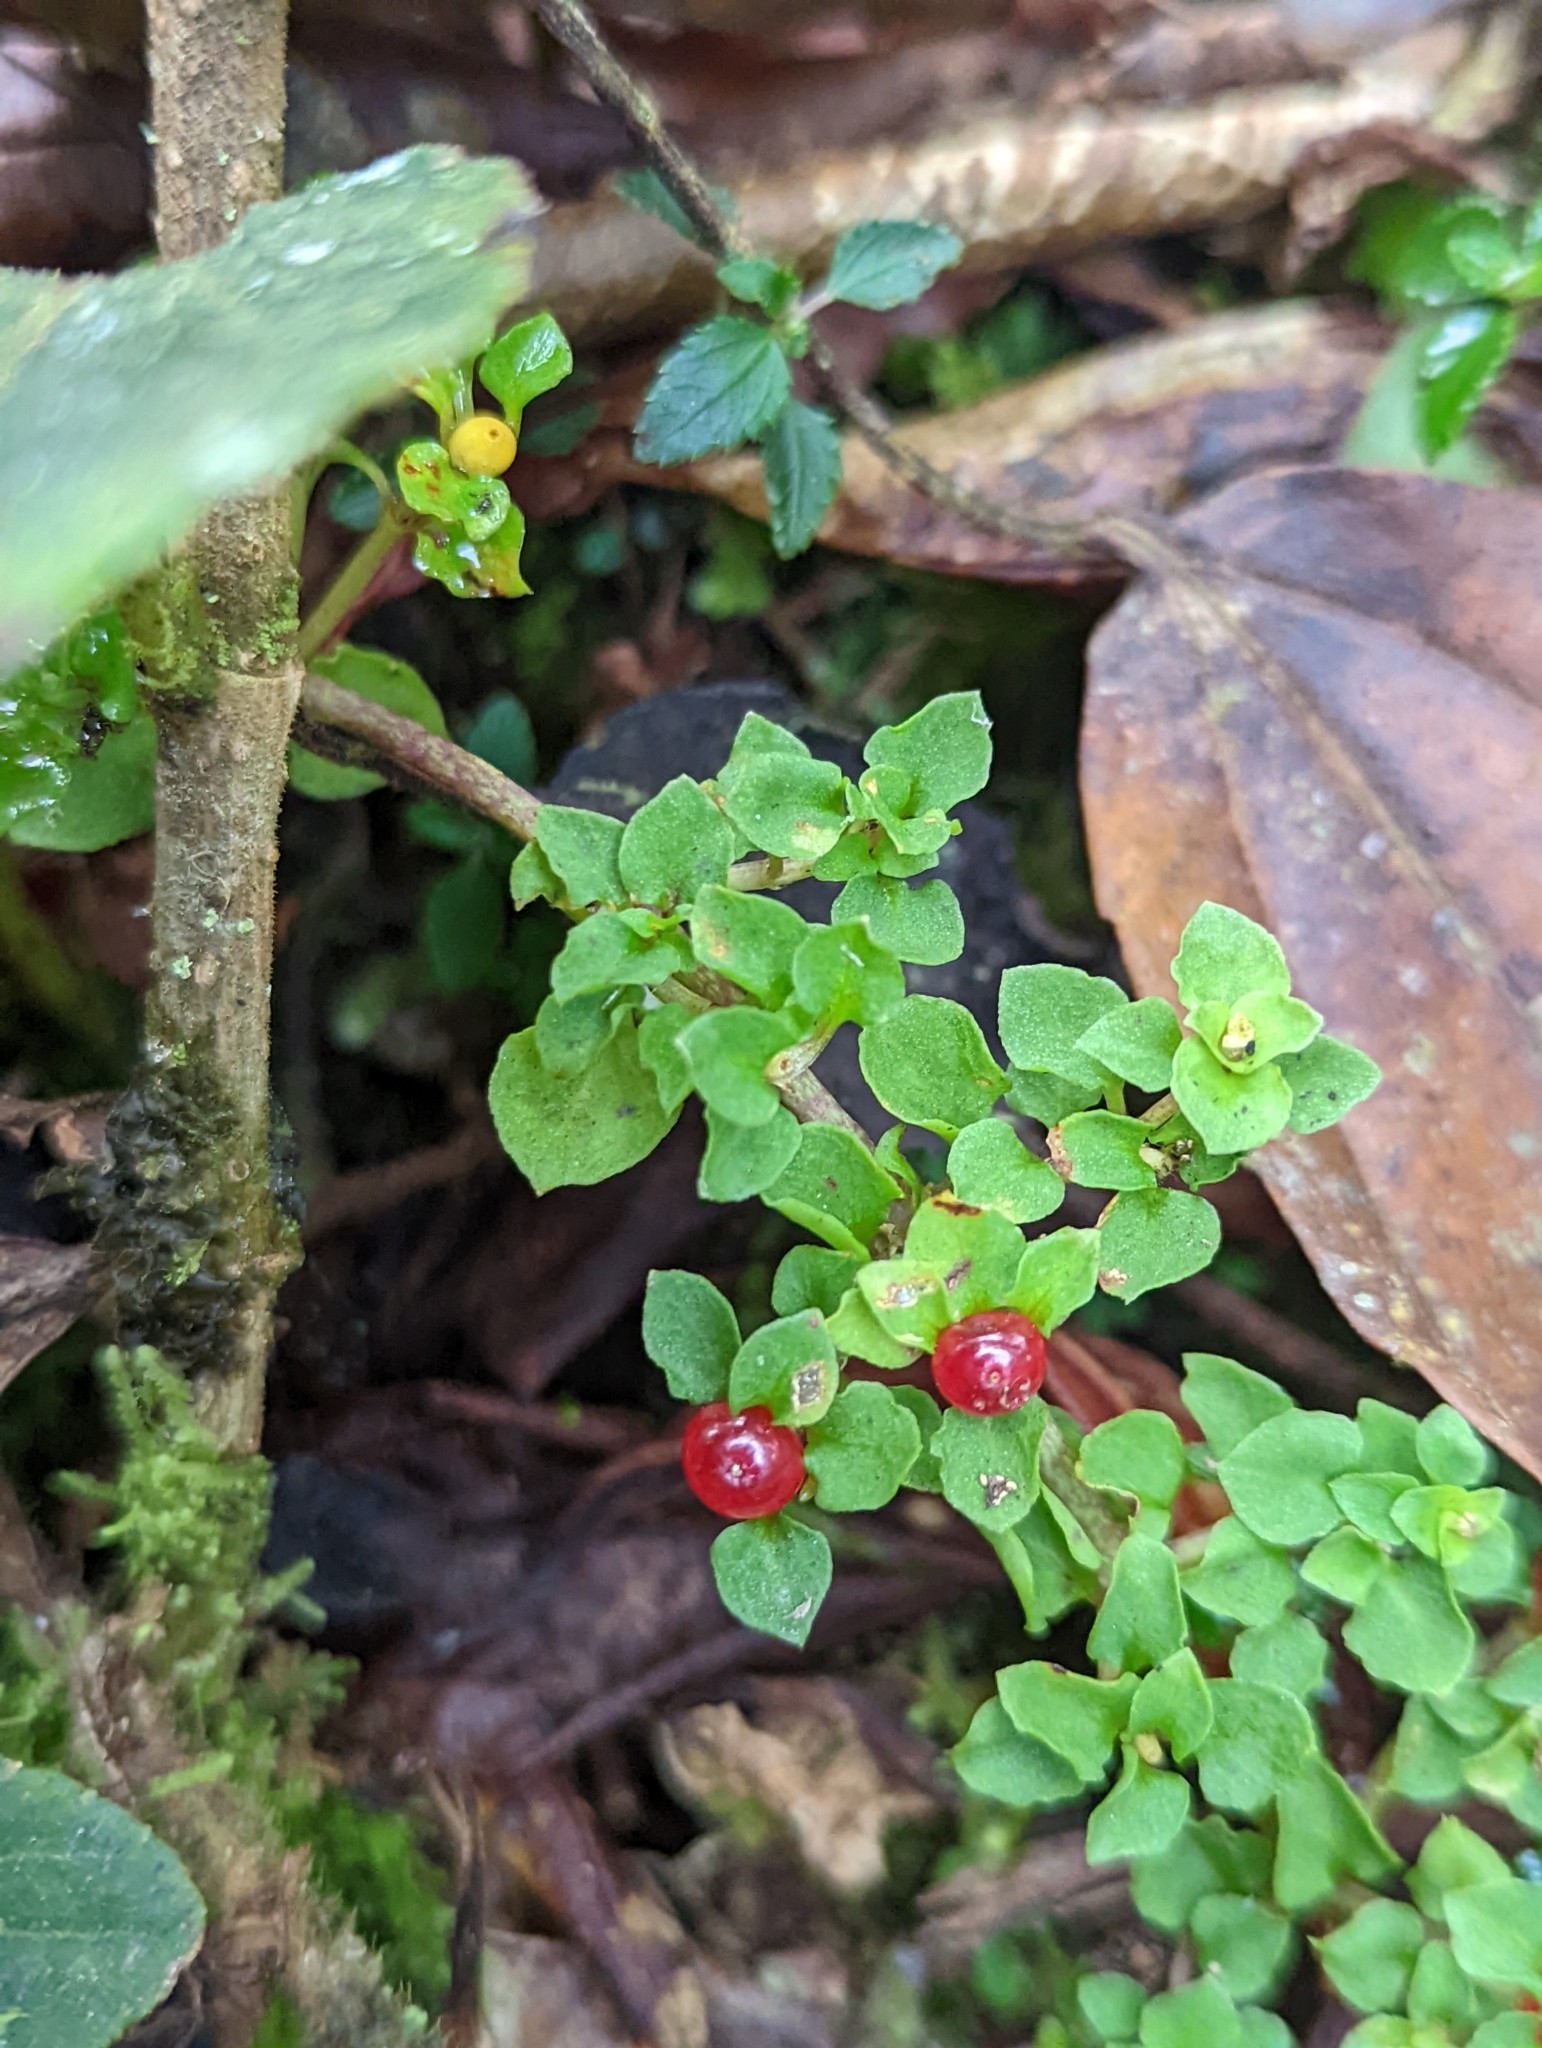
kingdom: Plantae
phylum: Tracheophyta
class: Magnoliopsida
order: Gentianales
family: Rubiaceae
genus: Nertera
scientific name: Nertera granadensis
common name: Beadplant
